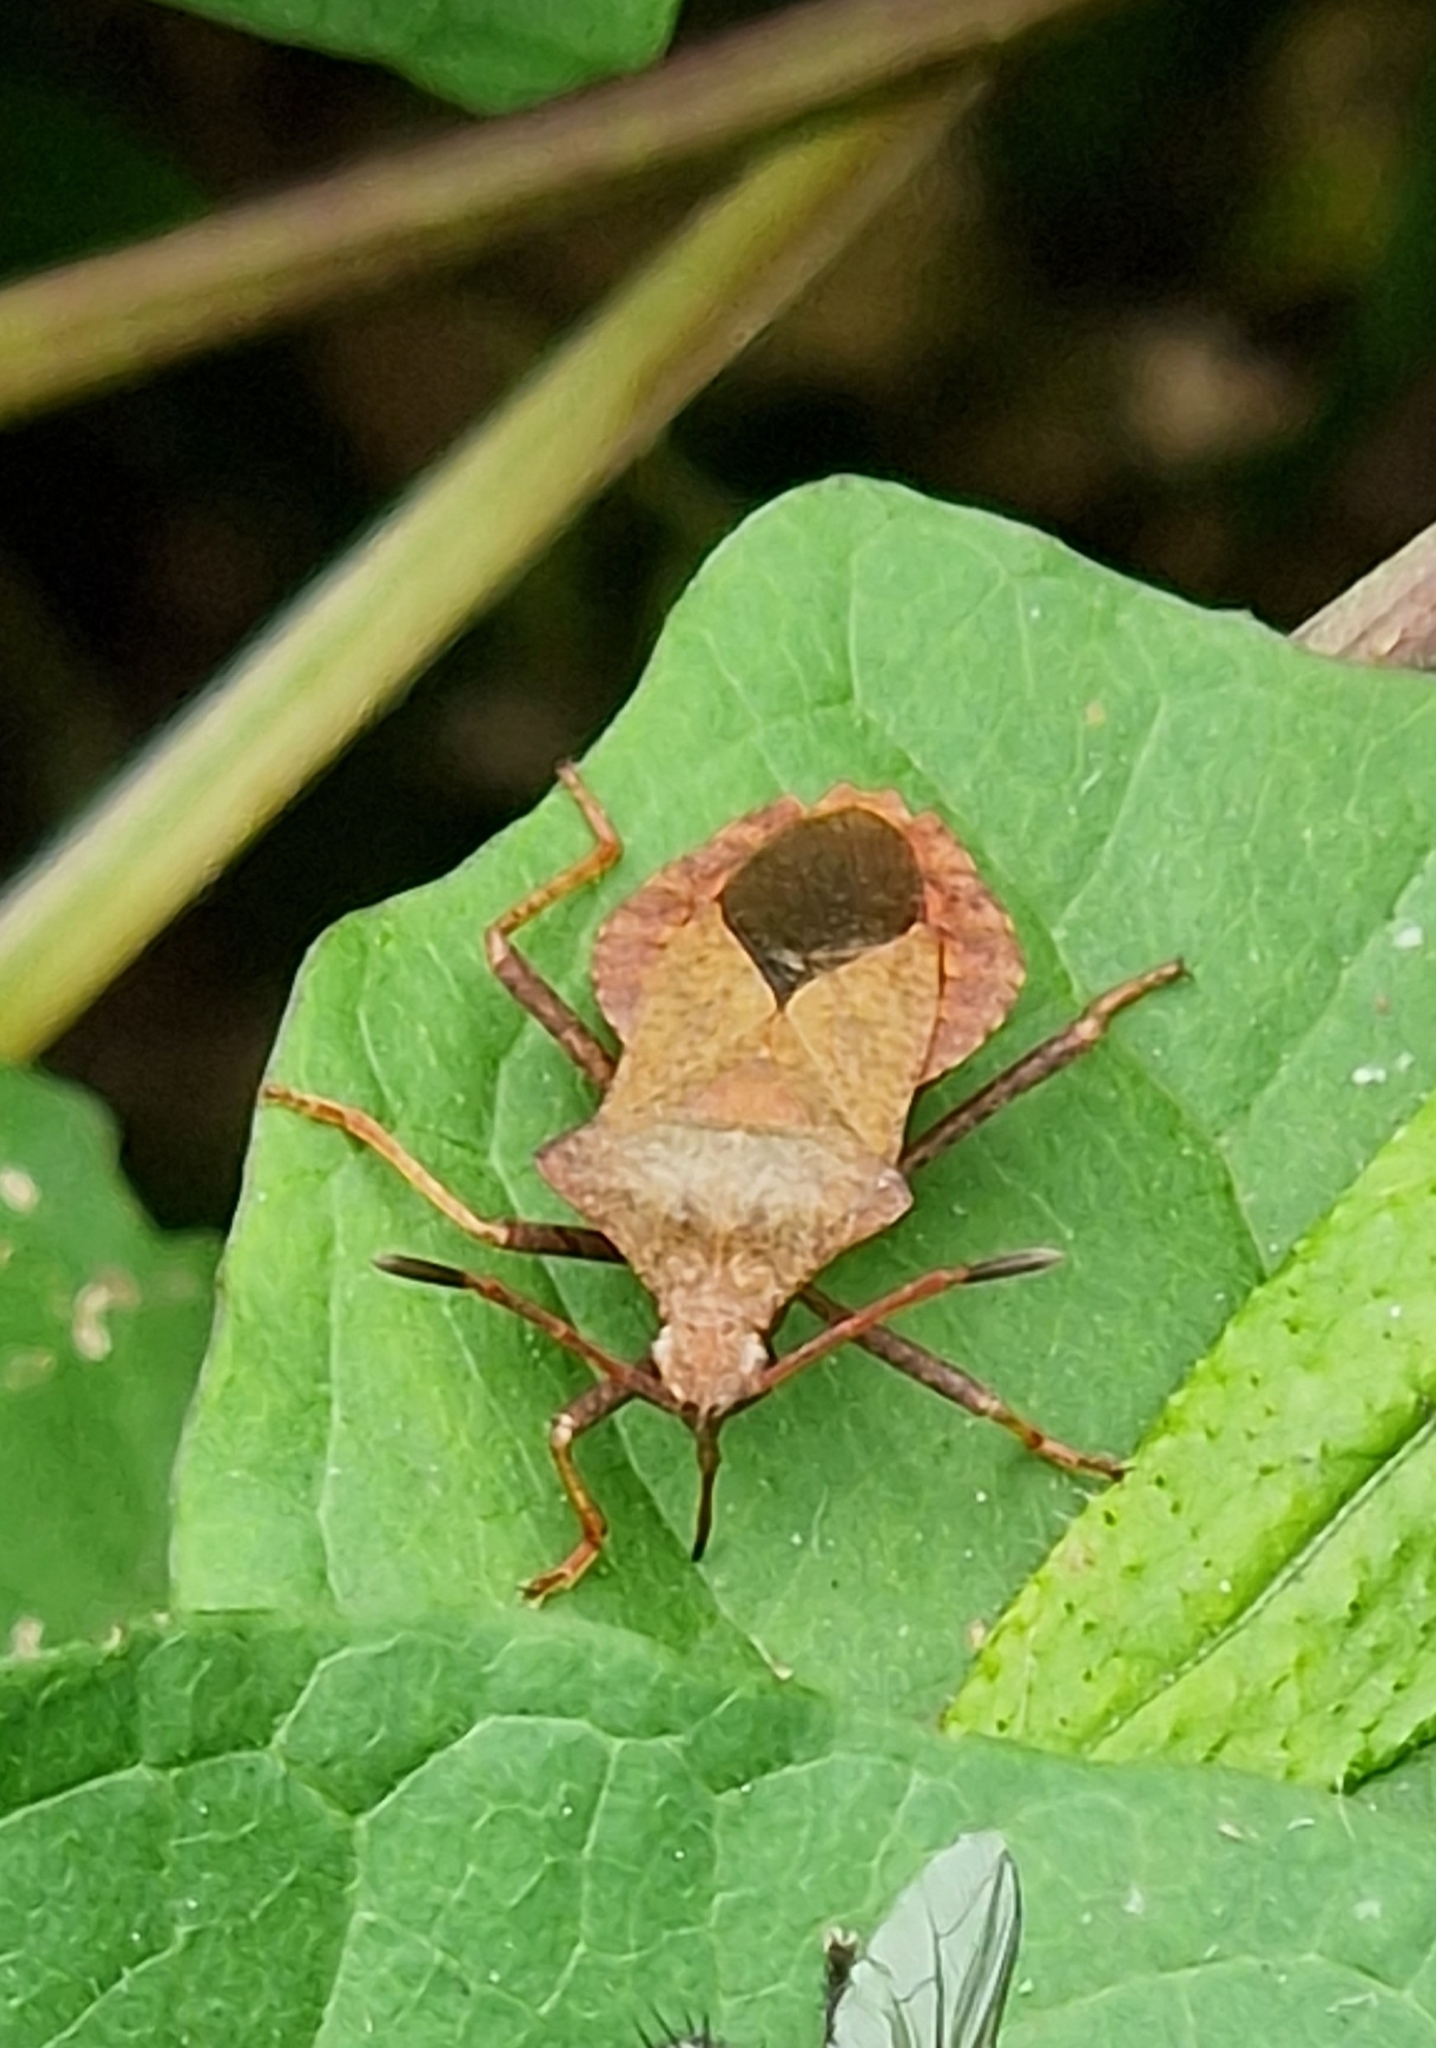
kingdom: Animalia
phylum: Arthropoda
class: Insecta
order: Hemiptera
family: Coreidae
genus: Coreus
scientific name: Coreus marginatus
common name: Dock bug
